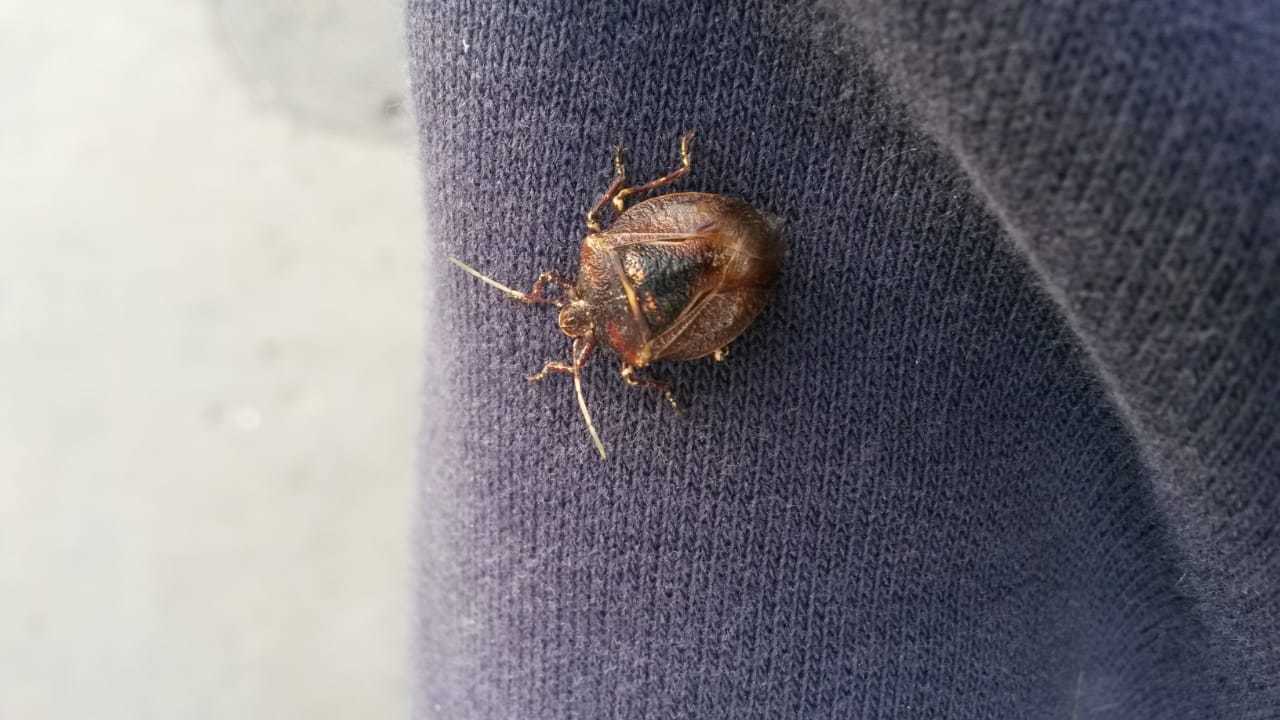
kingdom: Animalia
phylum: Arthropoda
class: Insecta
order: Hemiptera
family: Pentatomidae
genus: Antiteuchus
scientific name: Antiteuchus mixtus
